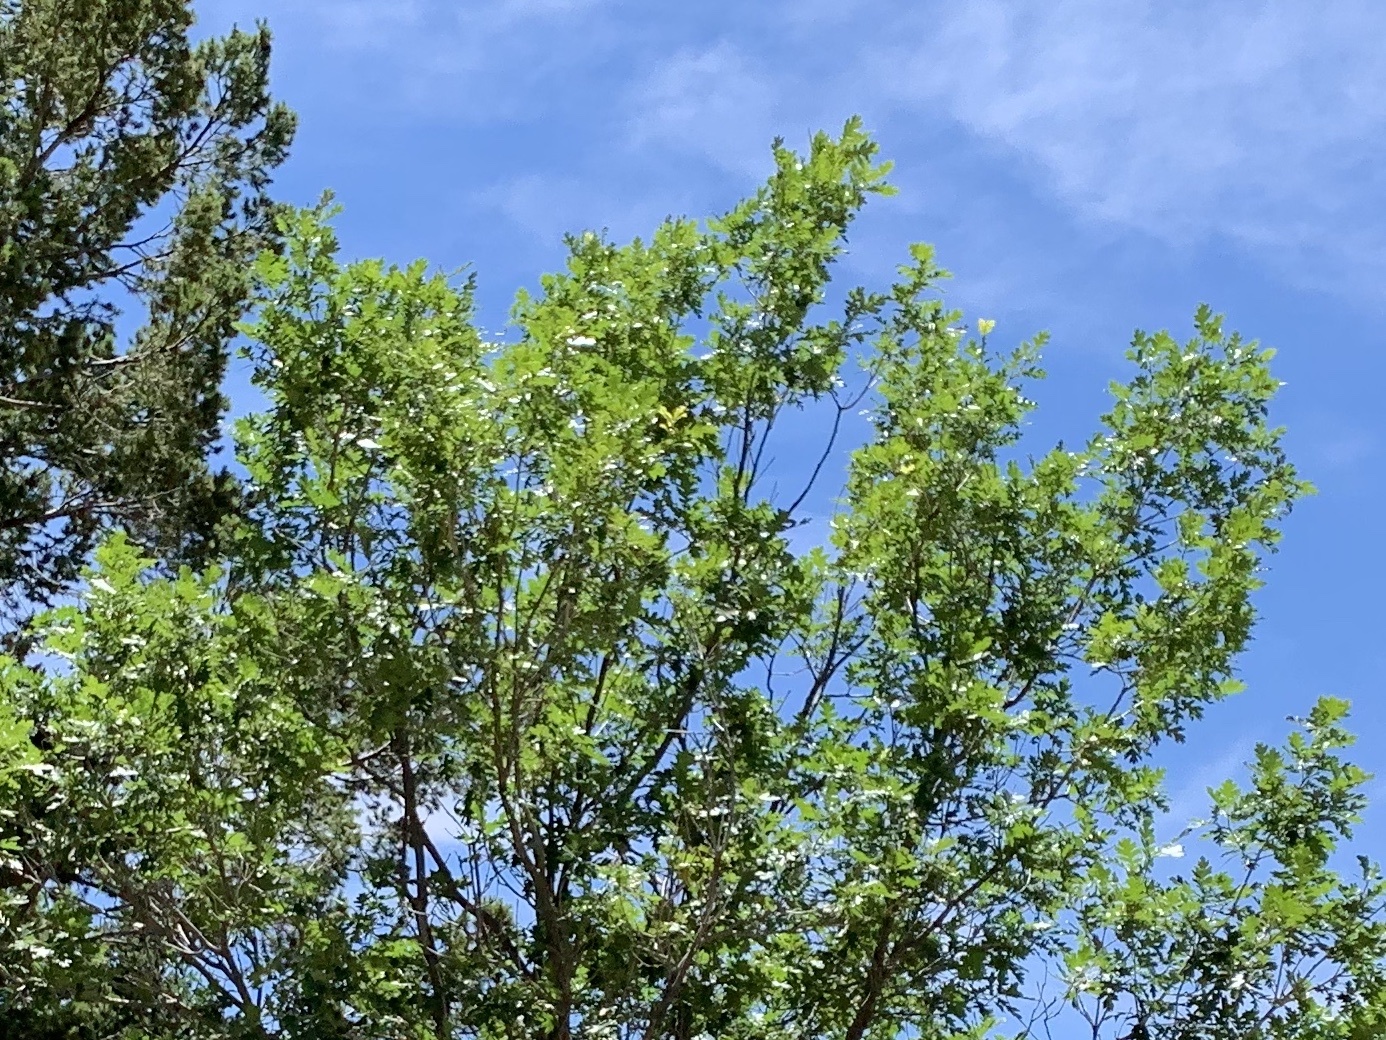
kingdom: Plantae
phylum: Tracheophyta
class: Magnoliopsida
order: Fagales
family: Fagaceae
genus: Quercus
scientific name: Quercus gambelii
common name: Gambel oak
